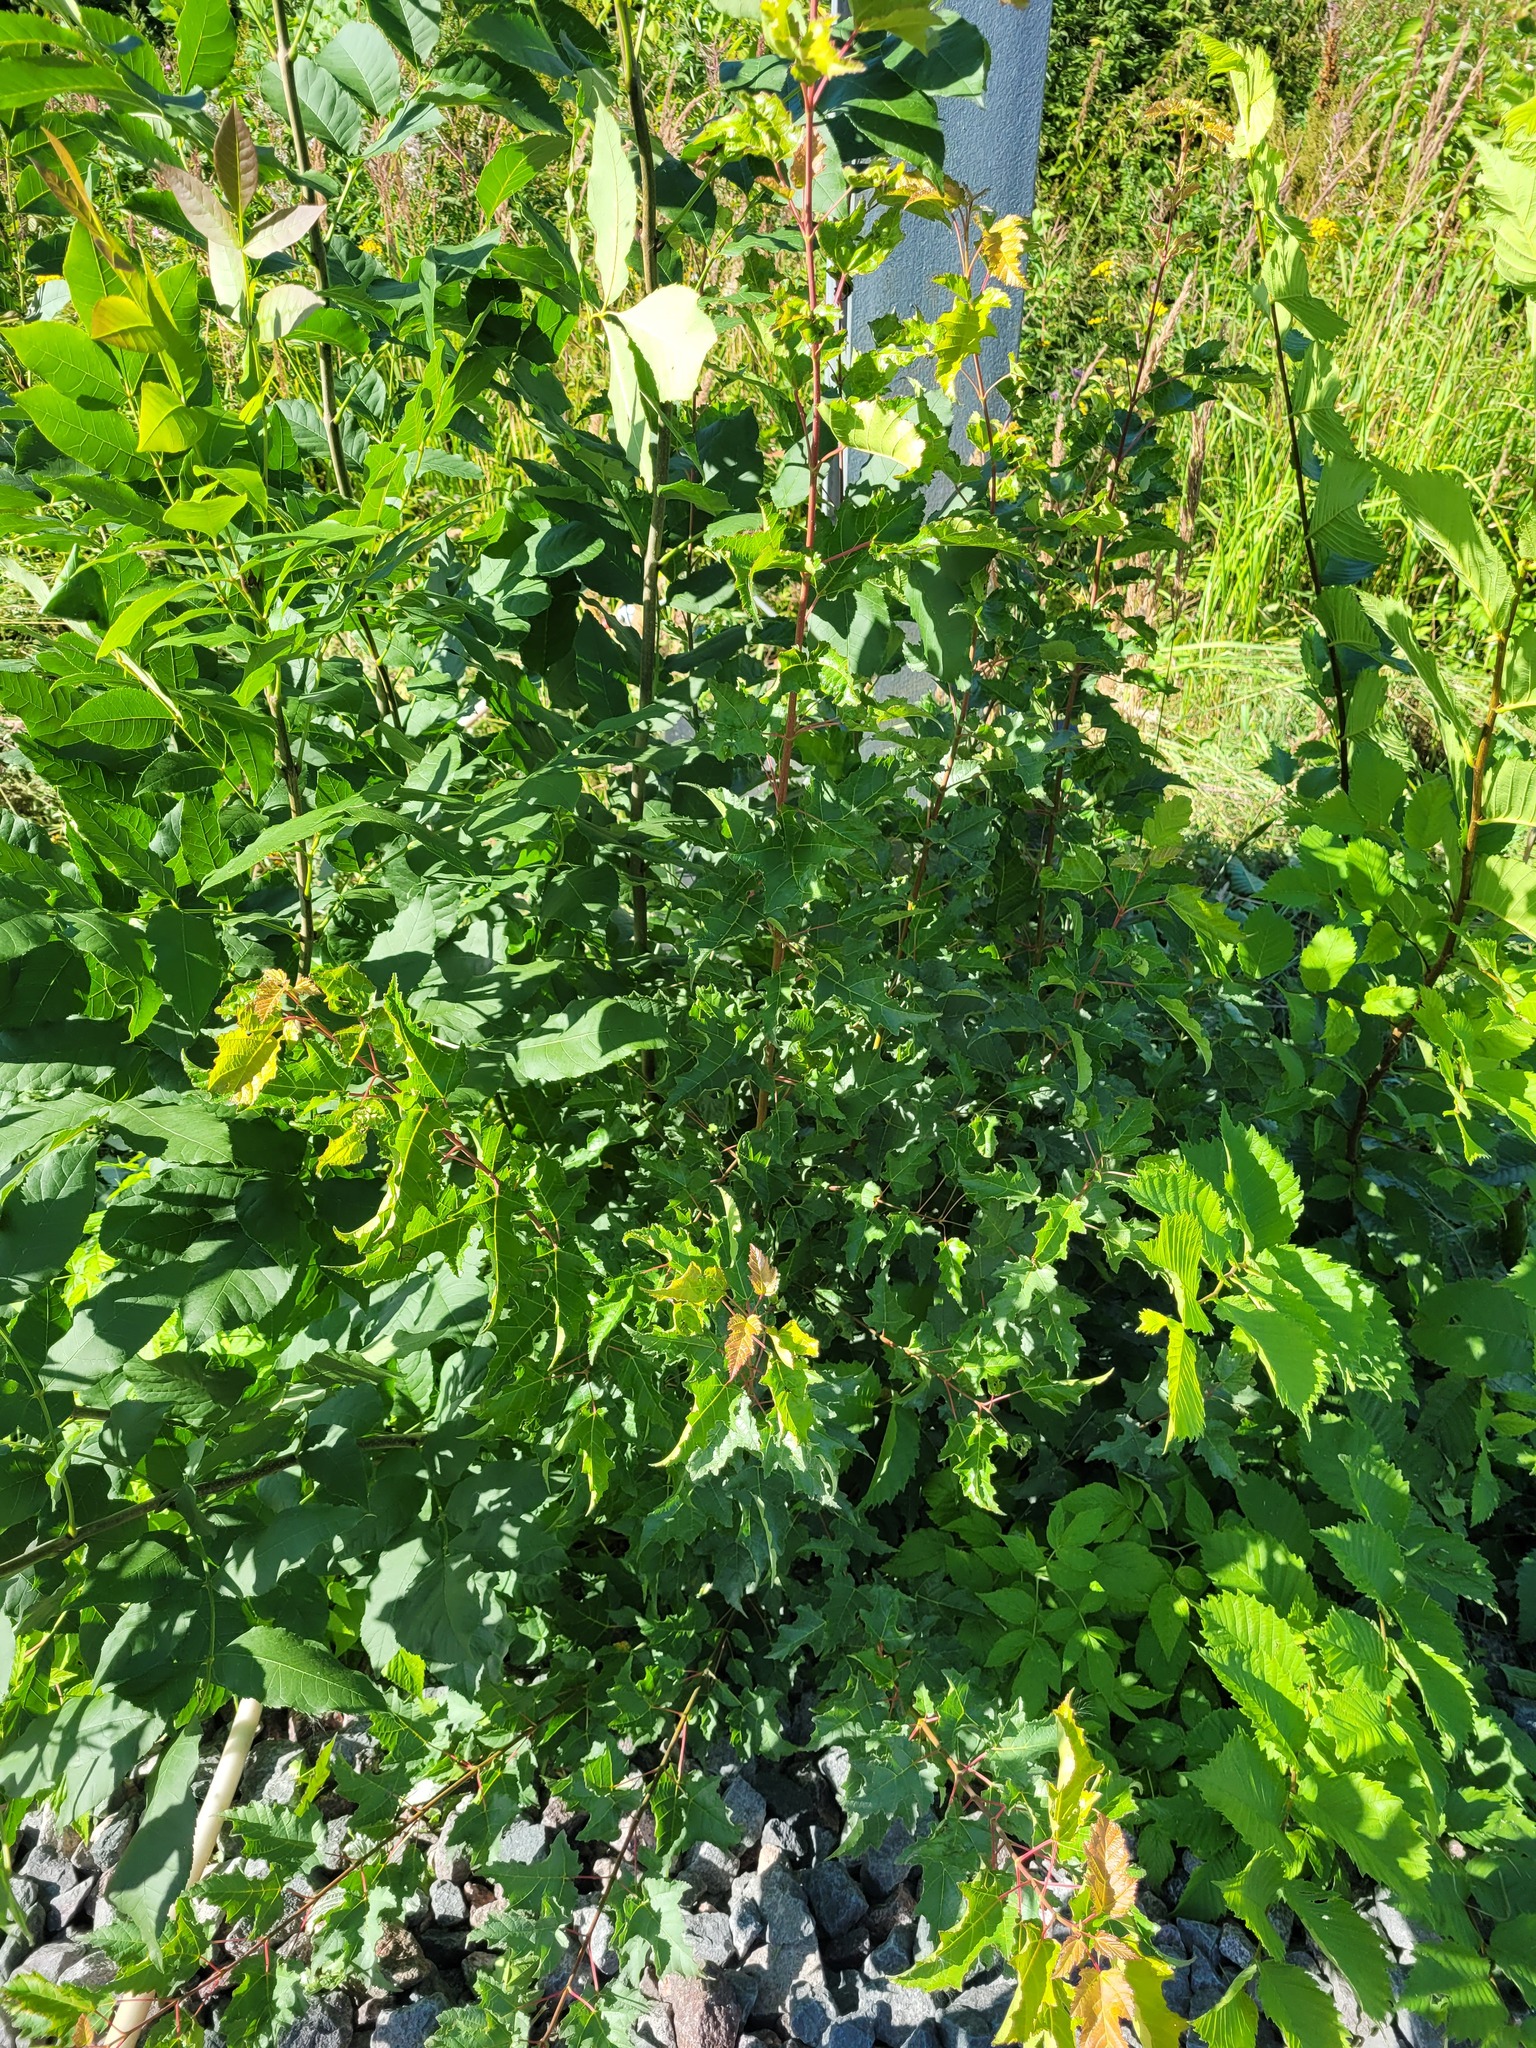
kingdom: Plantae
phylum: Tracheophyta
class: Magnoliopsida
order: Sapindales
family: Sapindaceae
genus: Acer
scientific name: Acer tataricum
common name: Tartar maple
